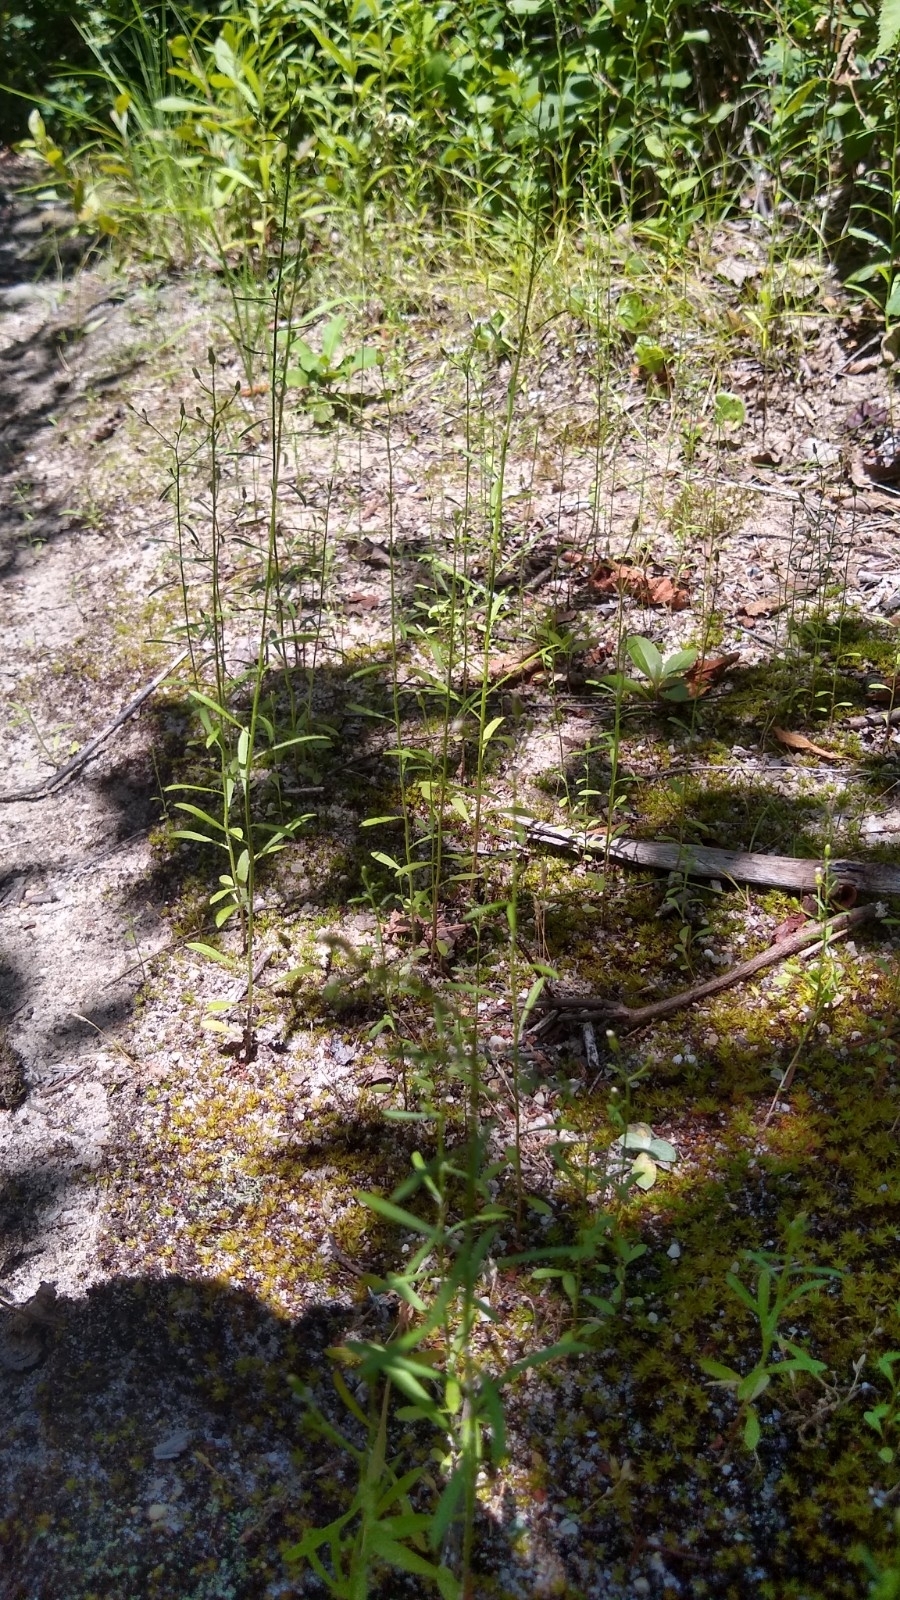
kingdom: Plantae
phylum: Tracheophyta
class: Magnoliopsida
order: Asterales
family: Asteraceae
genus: Erigeron
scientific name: Erigeron canadensis
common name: Canadian fleabane
